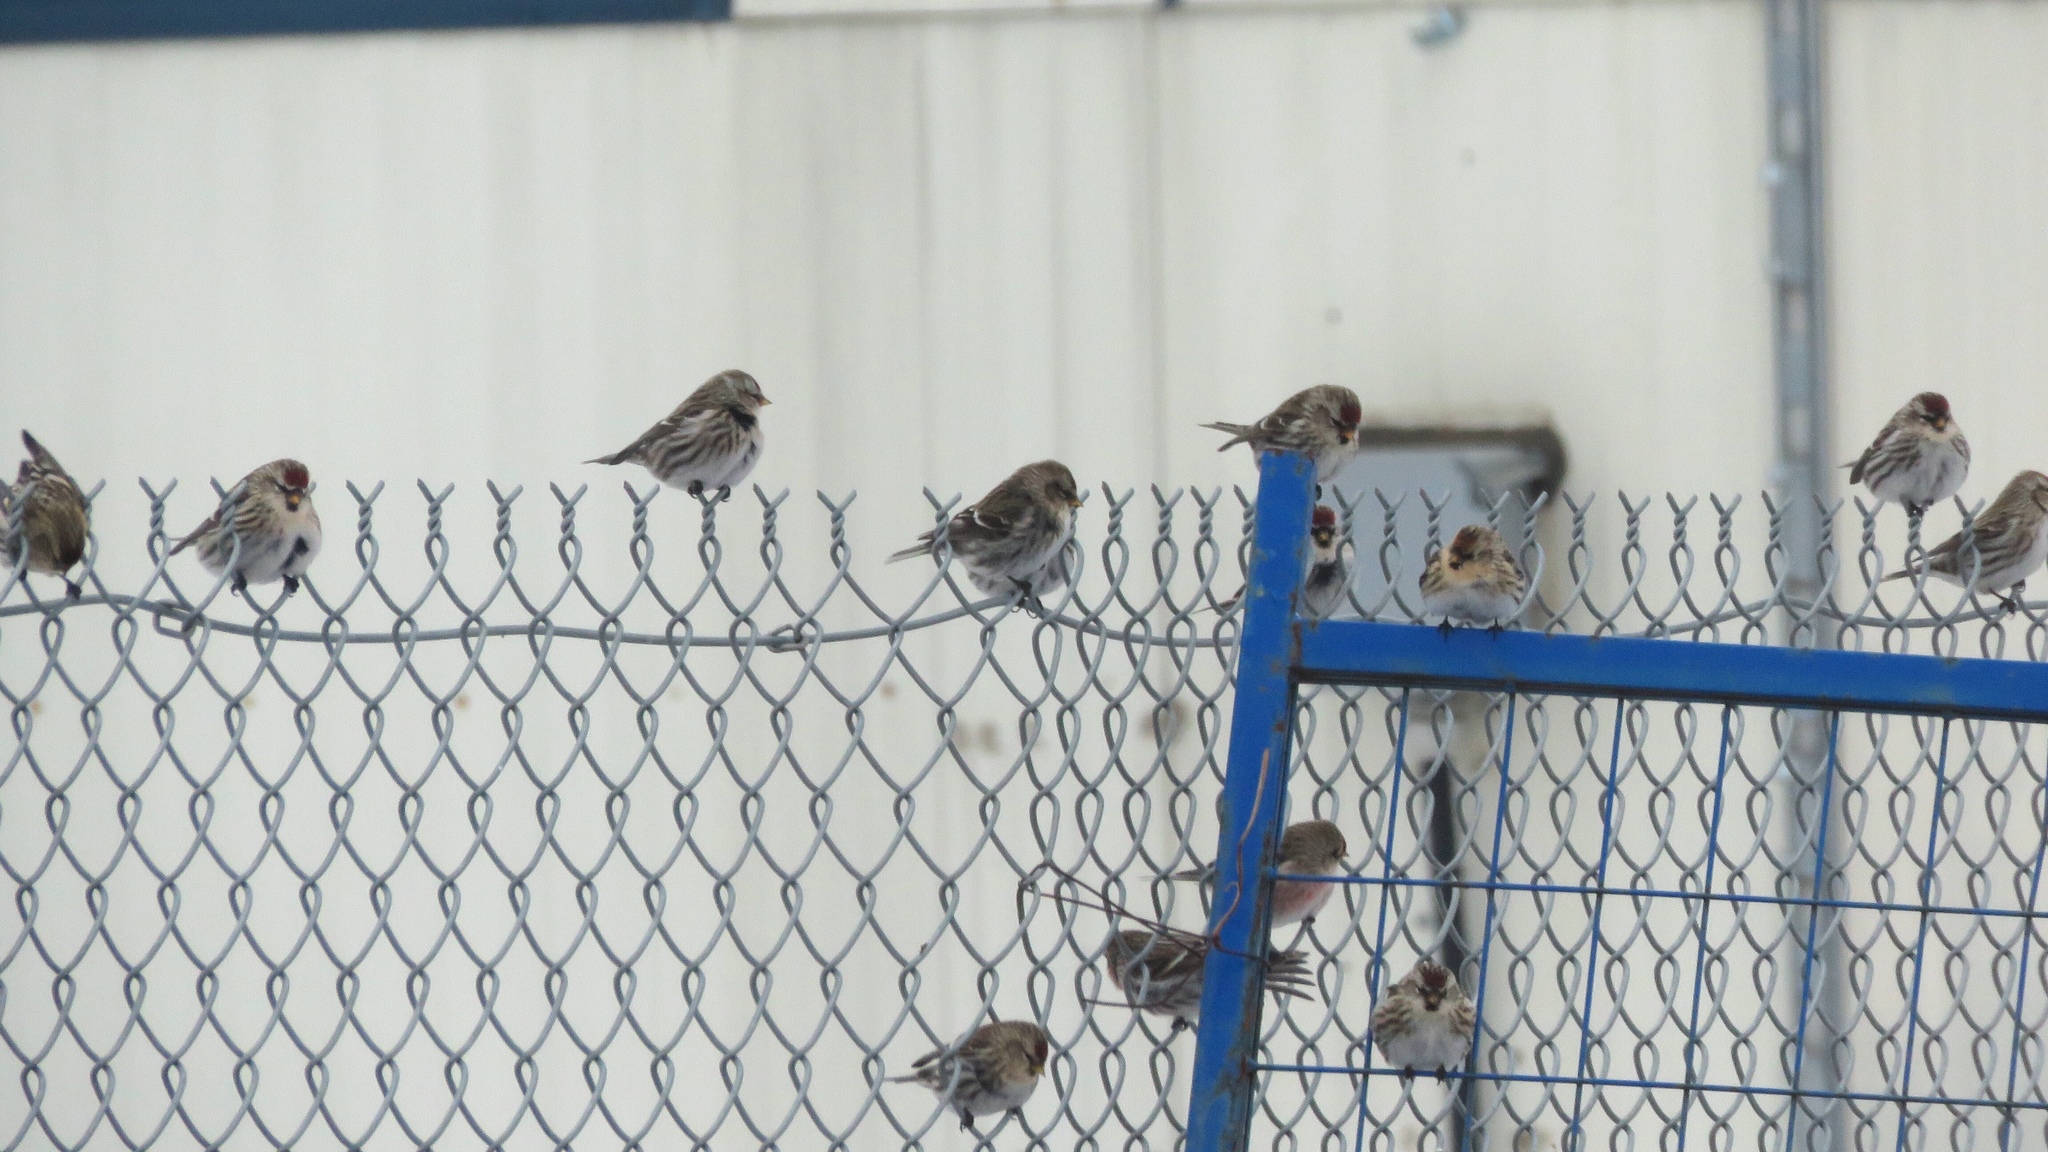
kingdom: Animalia
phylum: Chordata
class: Aves
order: Passeriformes
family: Fringillidae
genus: Acanthis
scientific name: Acanthis flammea
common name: Common redpoll
